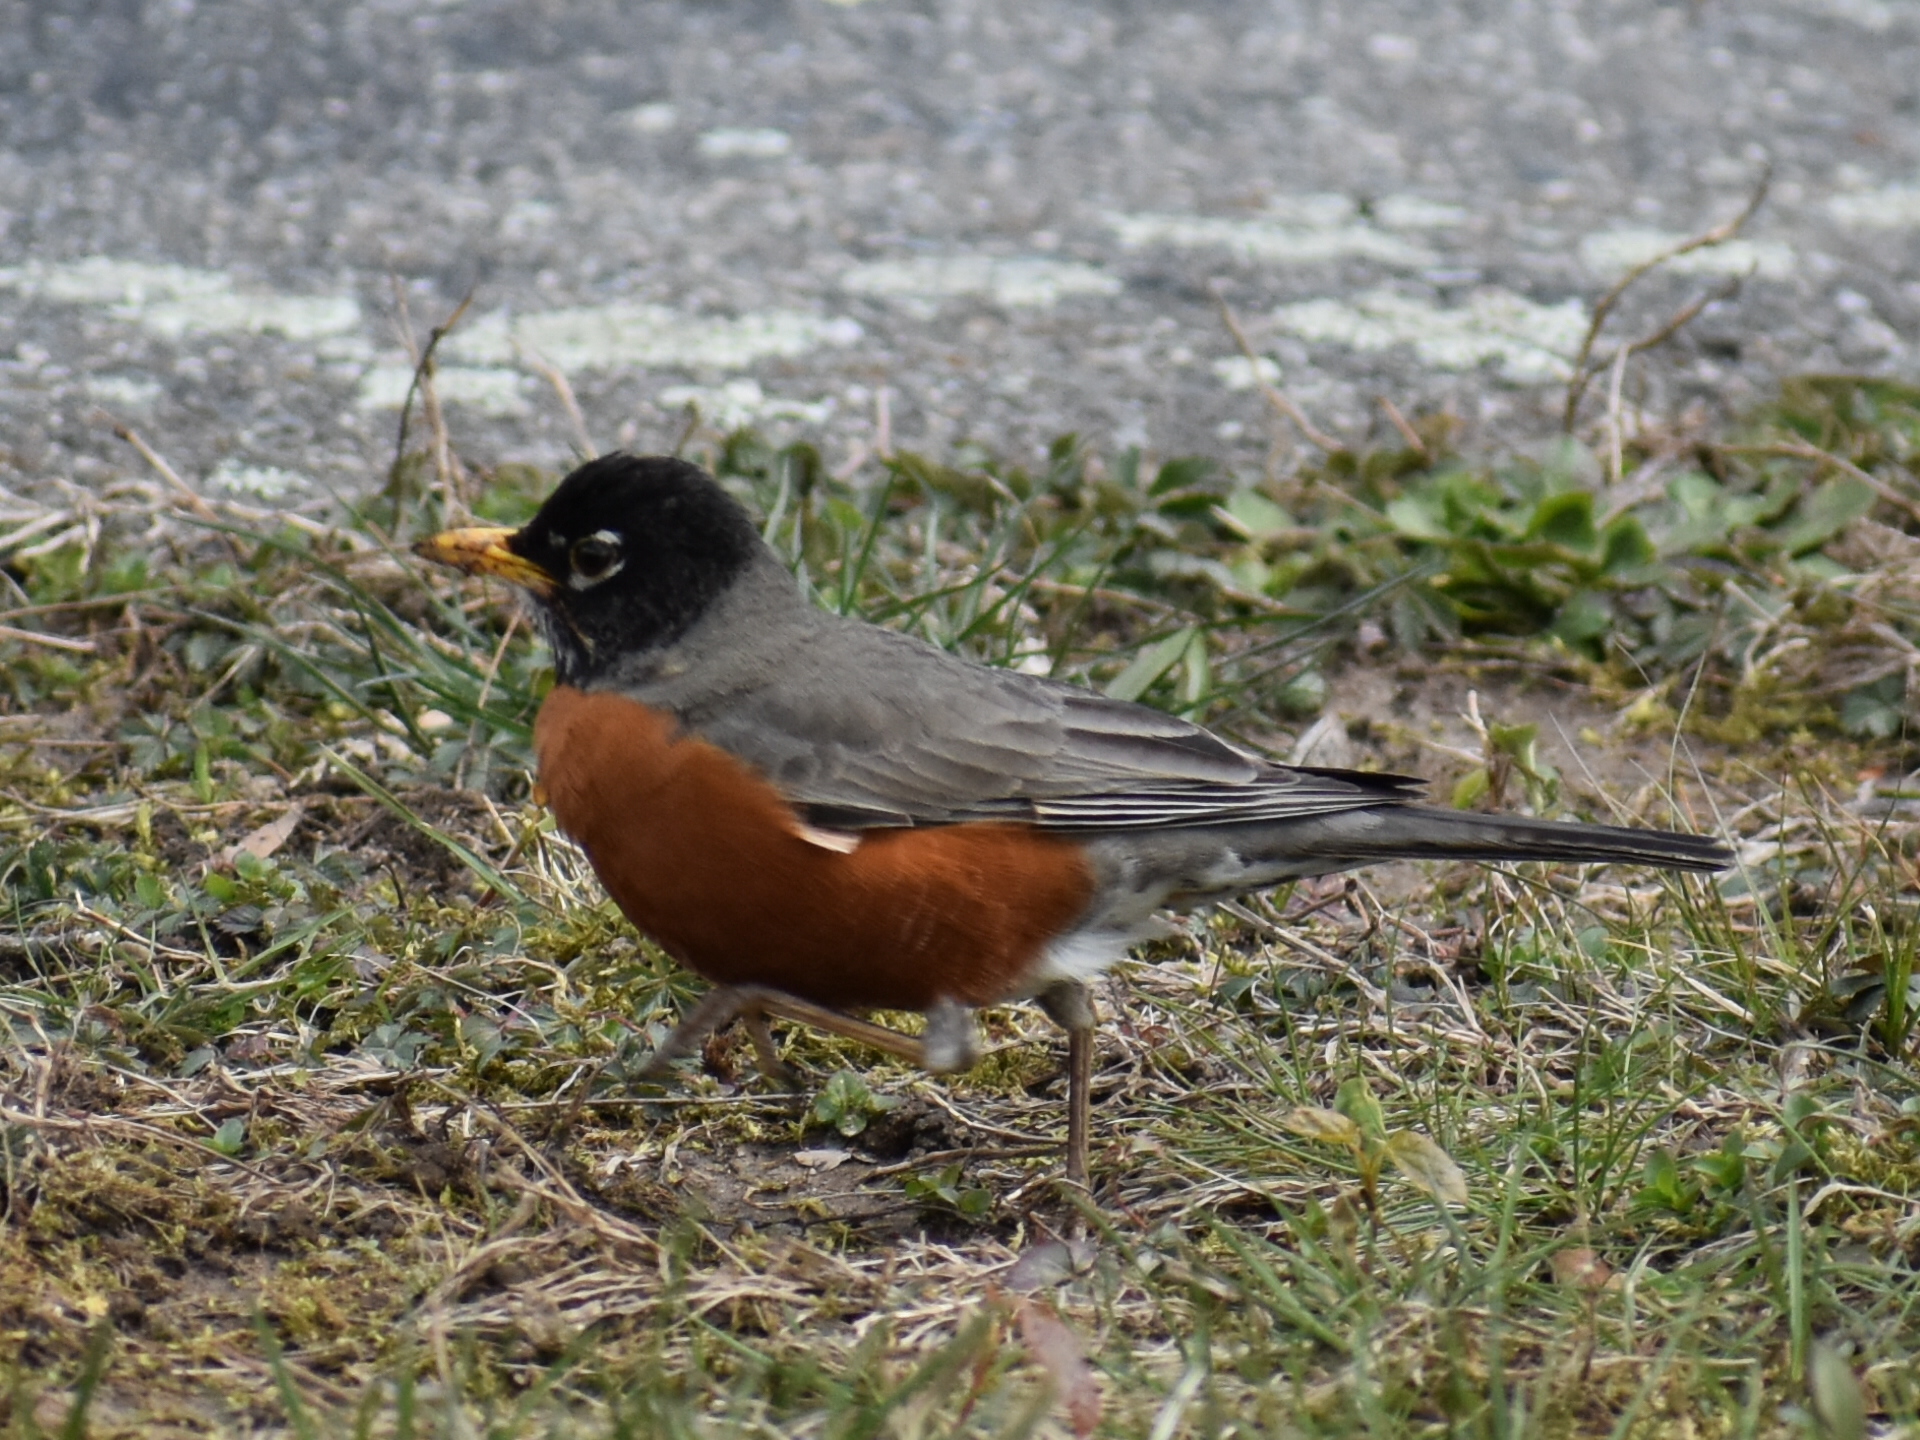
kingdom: Animalia
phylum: Chordata
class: Aves
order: Passeriformes
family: Turdidae
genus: Turdus
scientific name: Turdus migratorius
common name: American robin
